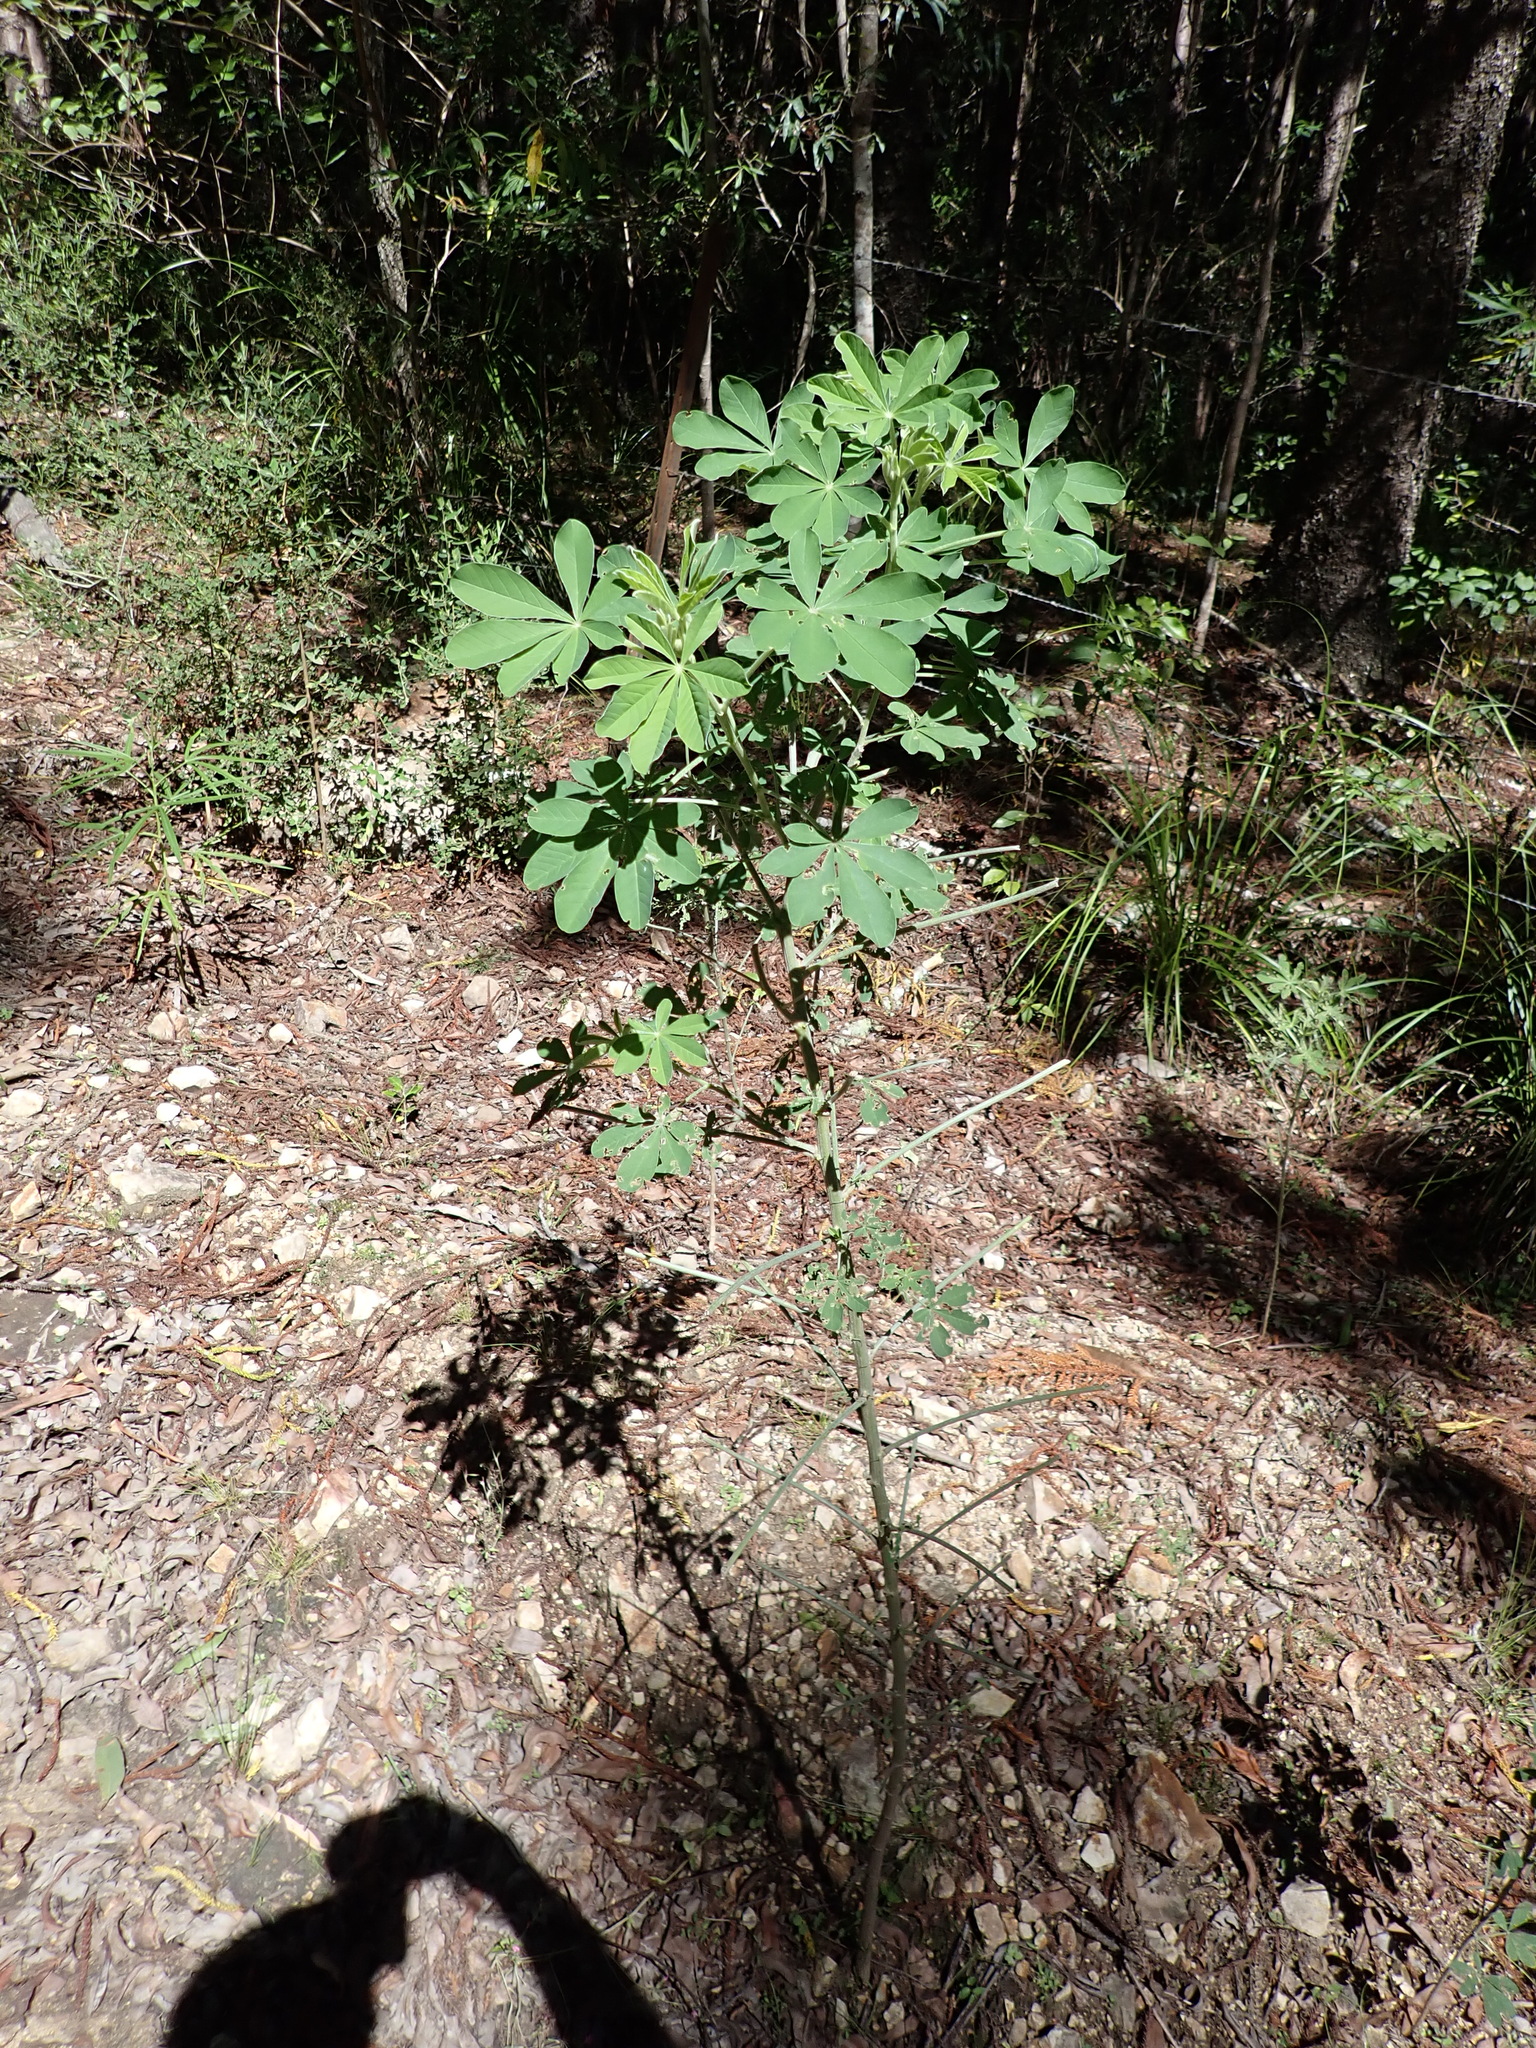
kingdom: Plantae
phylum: Tracheophyta
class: Magnoliopsida
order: Fabales
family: Fabaceae
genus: Crotalaria
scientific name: Crotalaria grahamiana
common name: Bushy rattlepod
